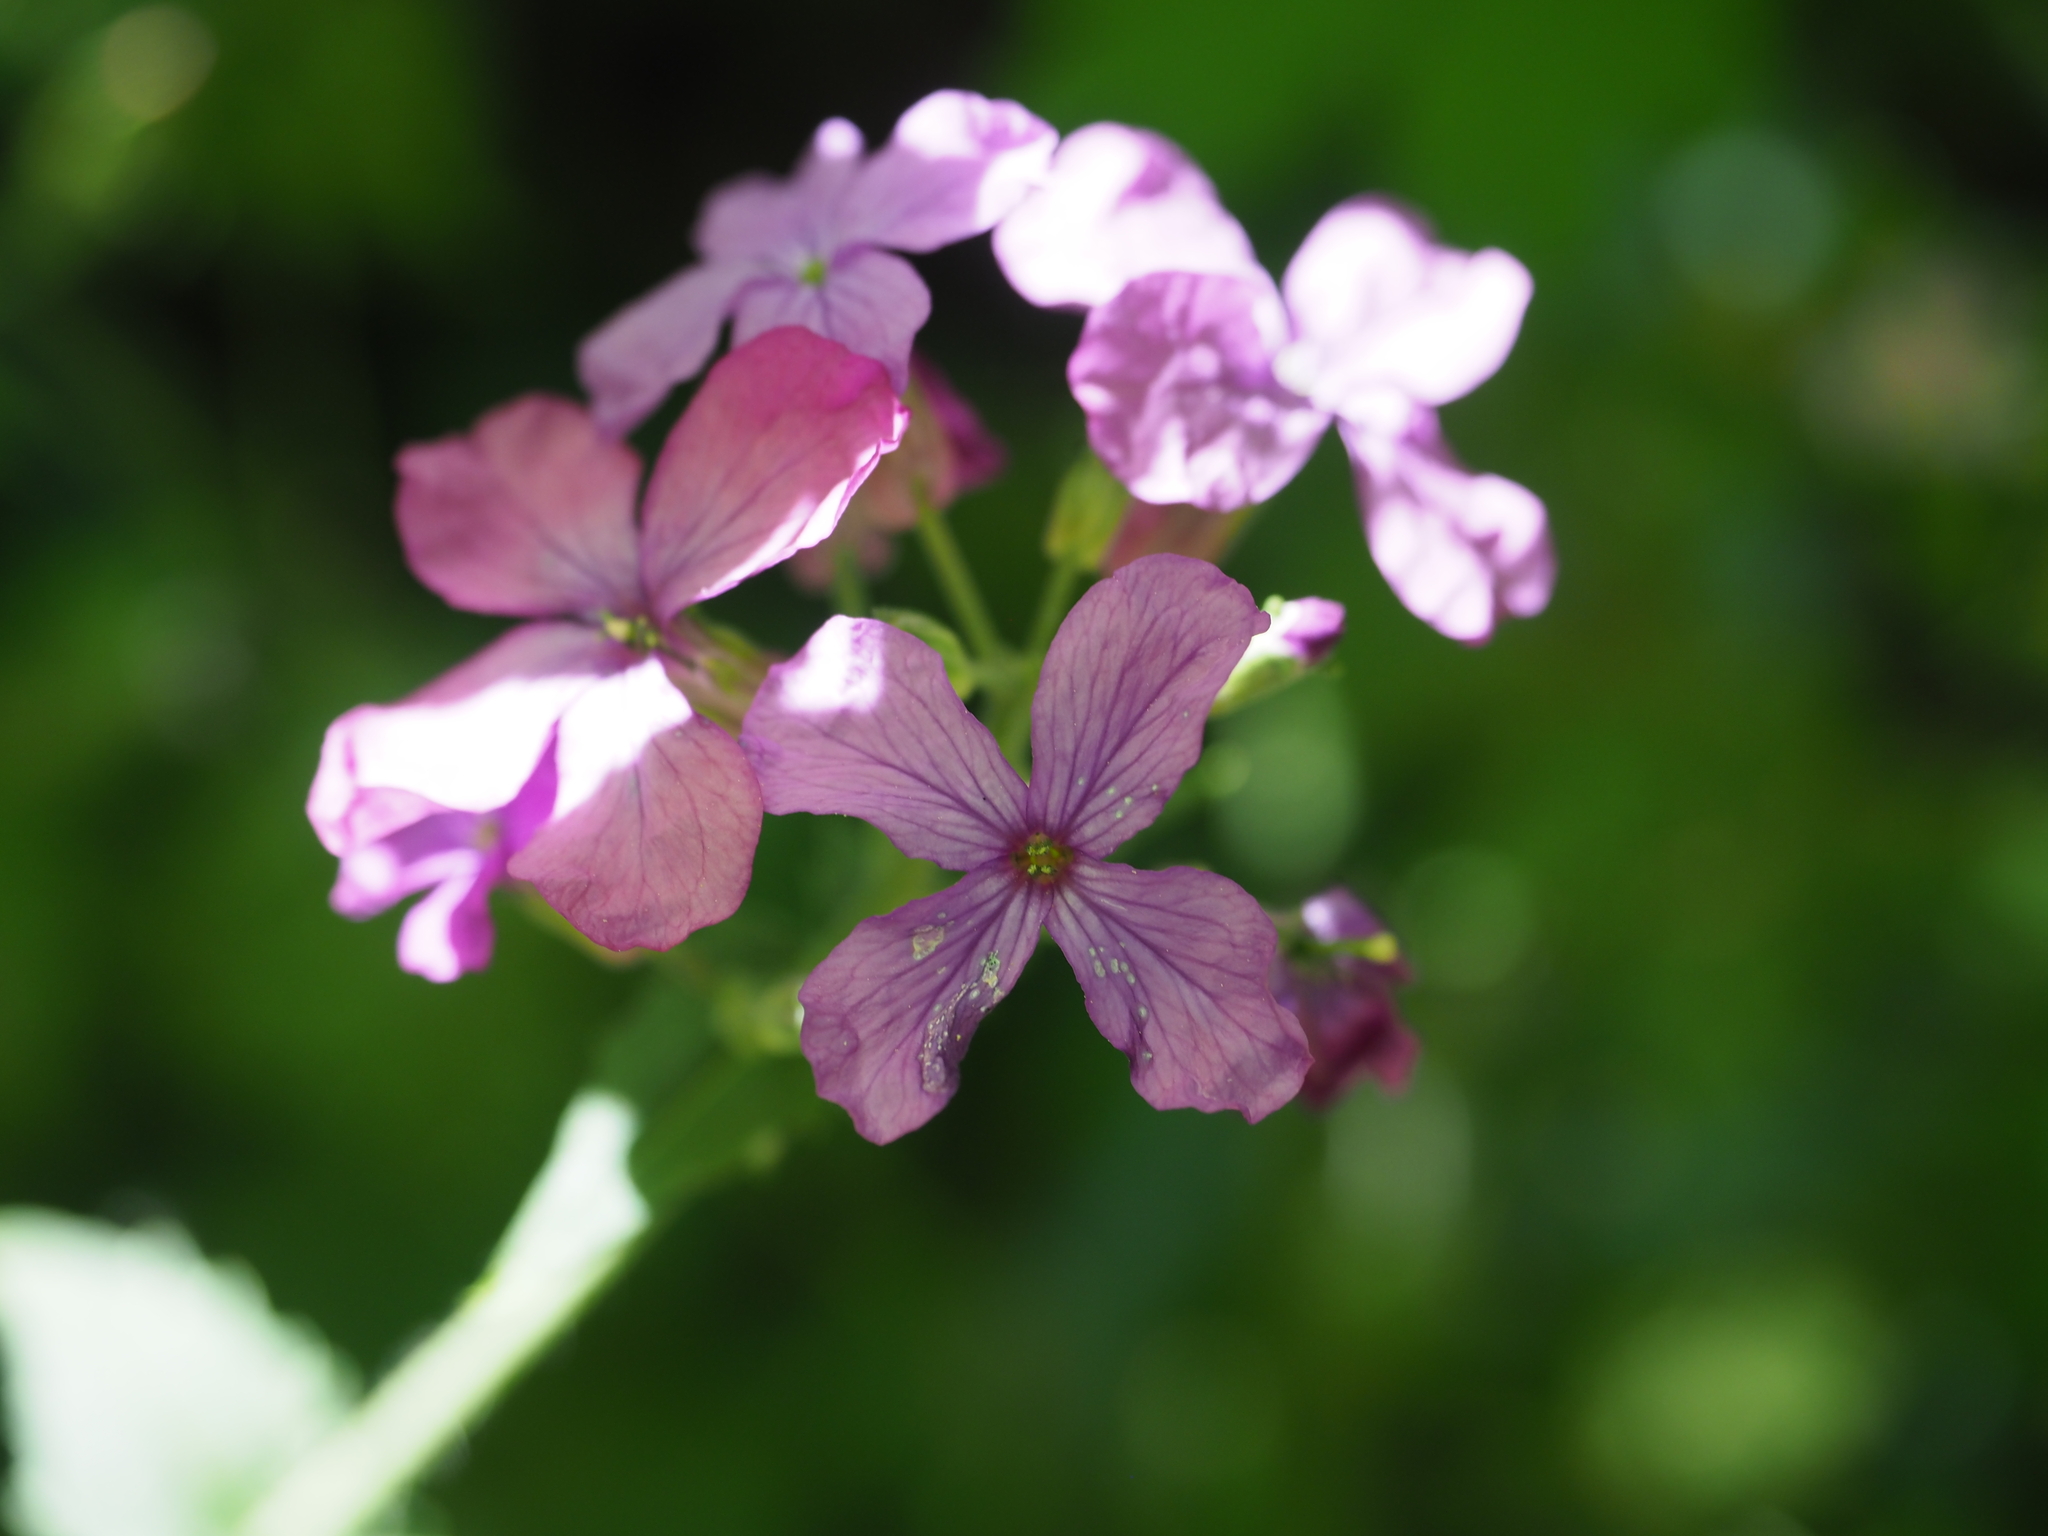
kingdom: Plantae
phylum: Tracheophyta
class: Magnoliopsida
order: Brassicales
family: Brassicaceae
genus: Lunaria
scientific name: Lunaria annua
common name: Honesty
